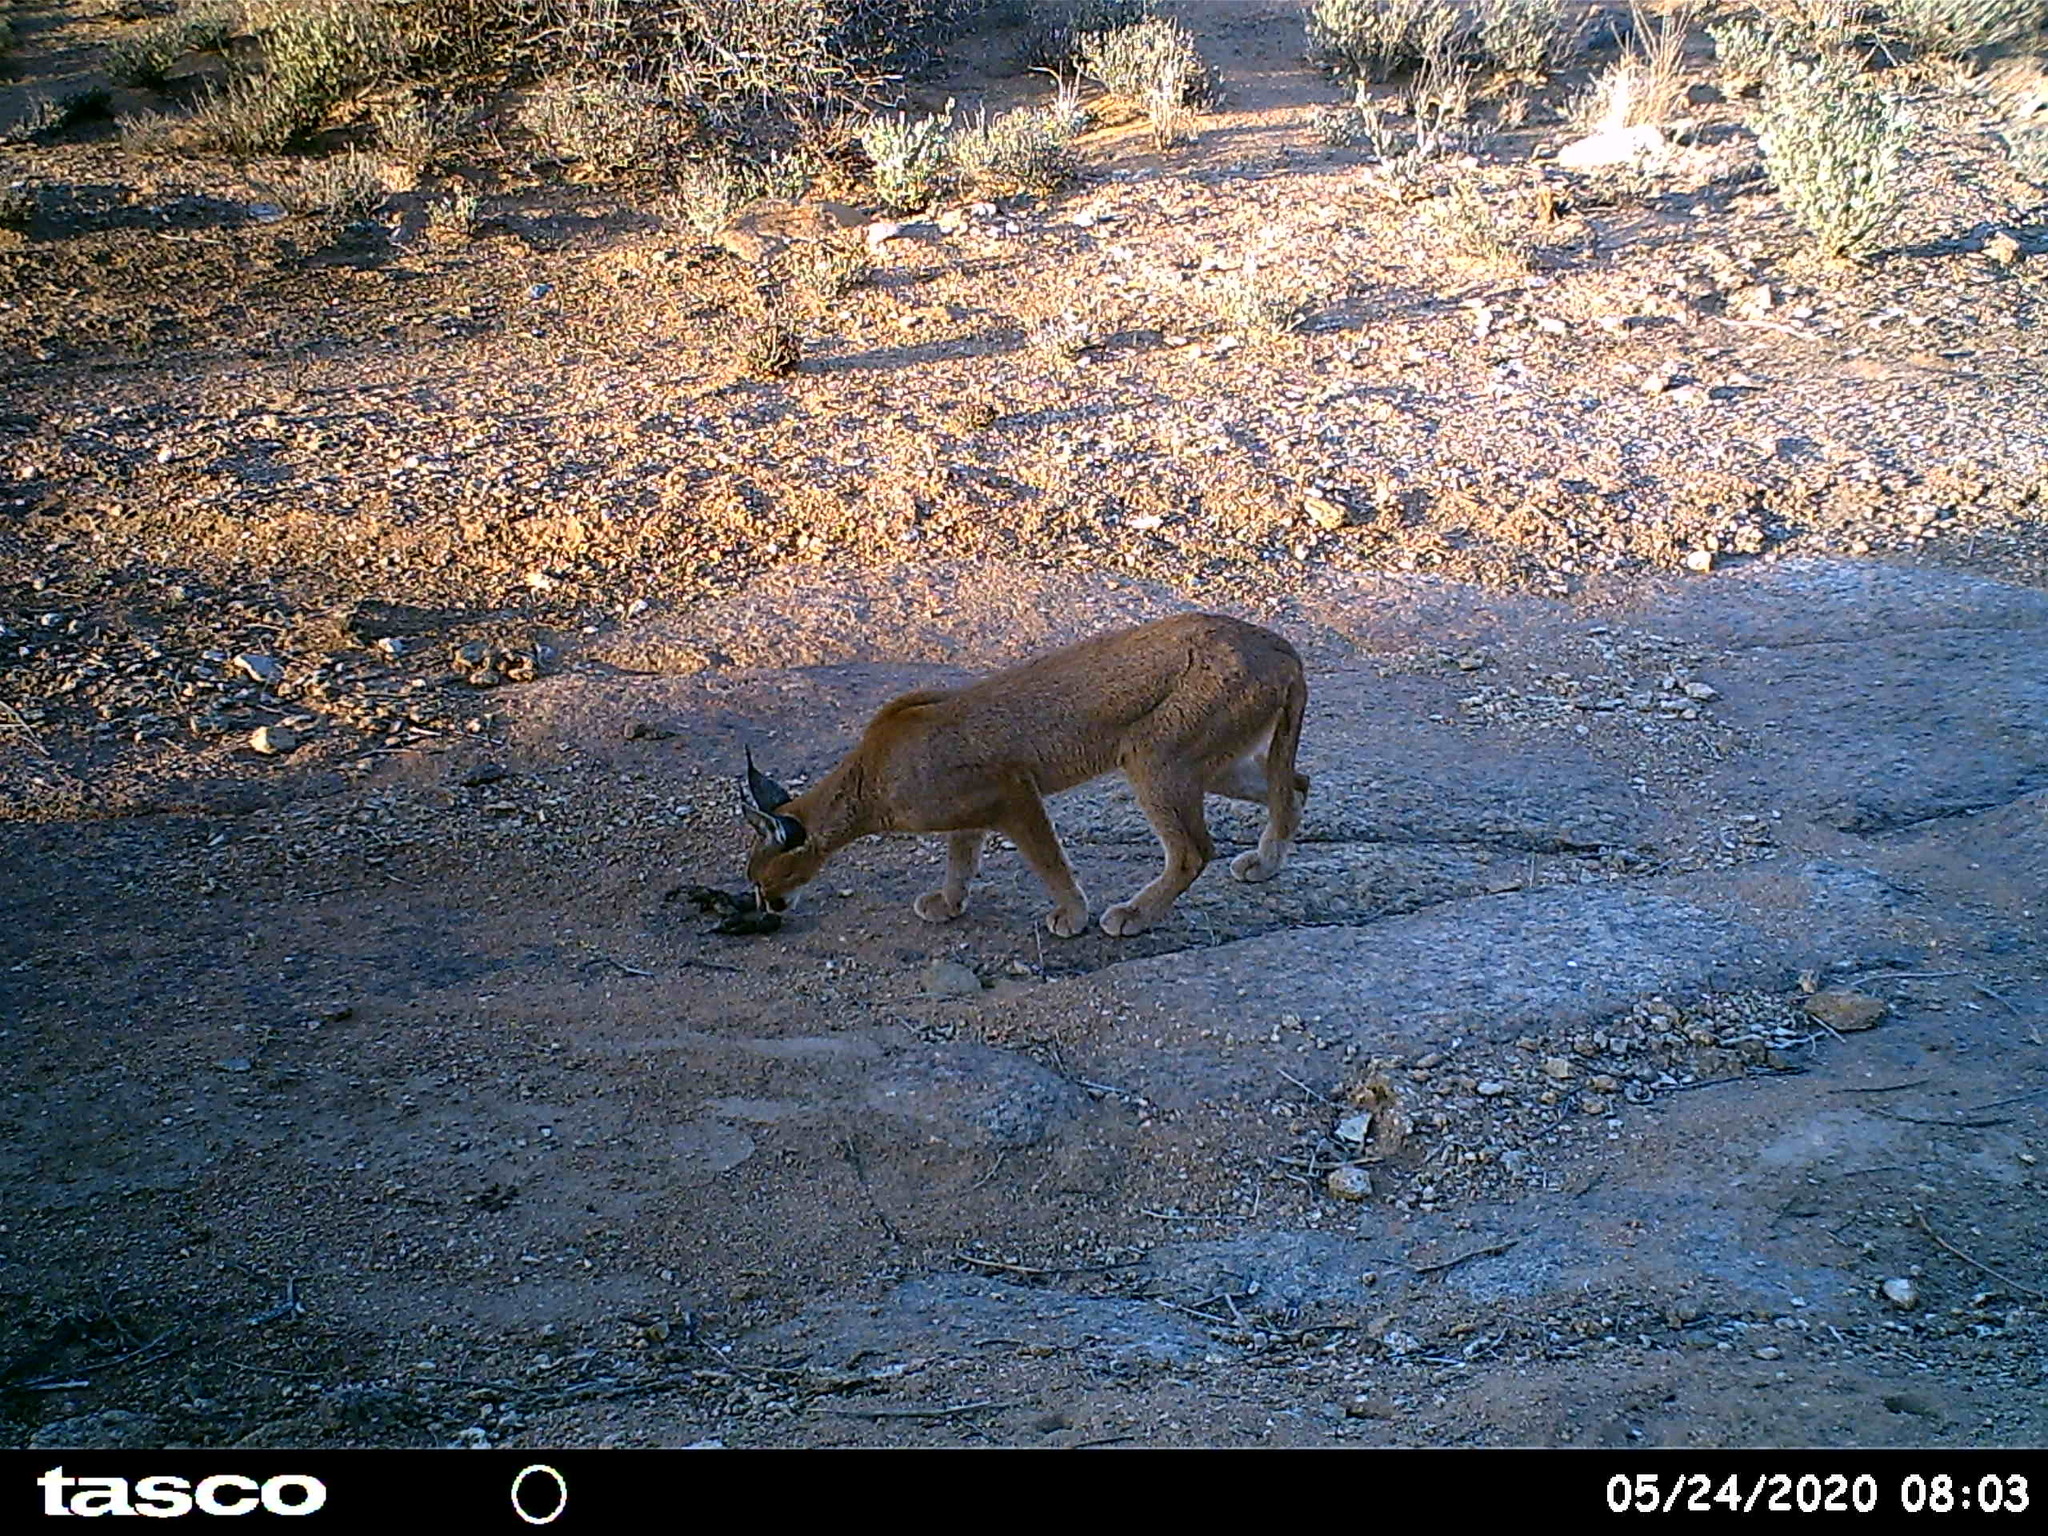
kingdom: Animalia
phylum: Chordata
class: Mammalia
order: Carnivora
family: Felidae
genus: Caracal
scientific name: Caracal caracal
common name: Caracal
